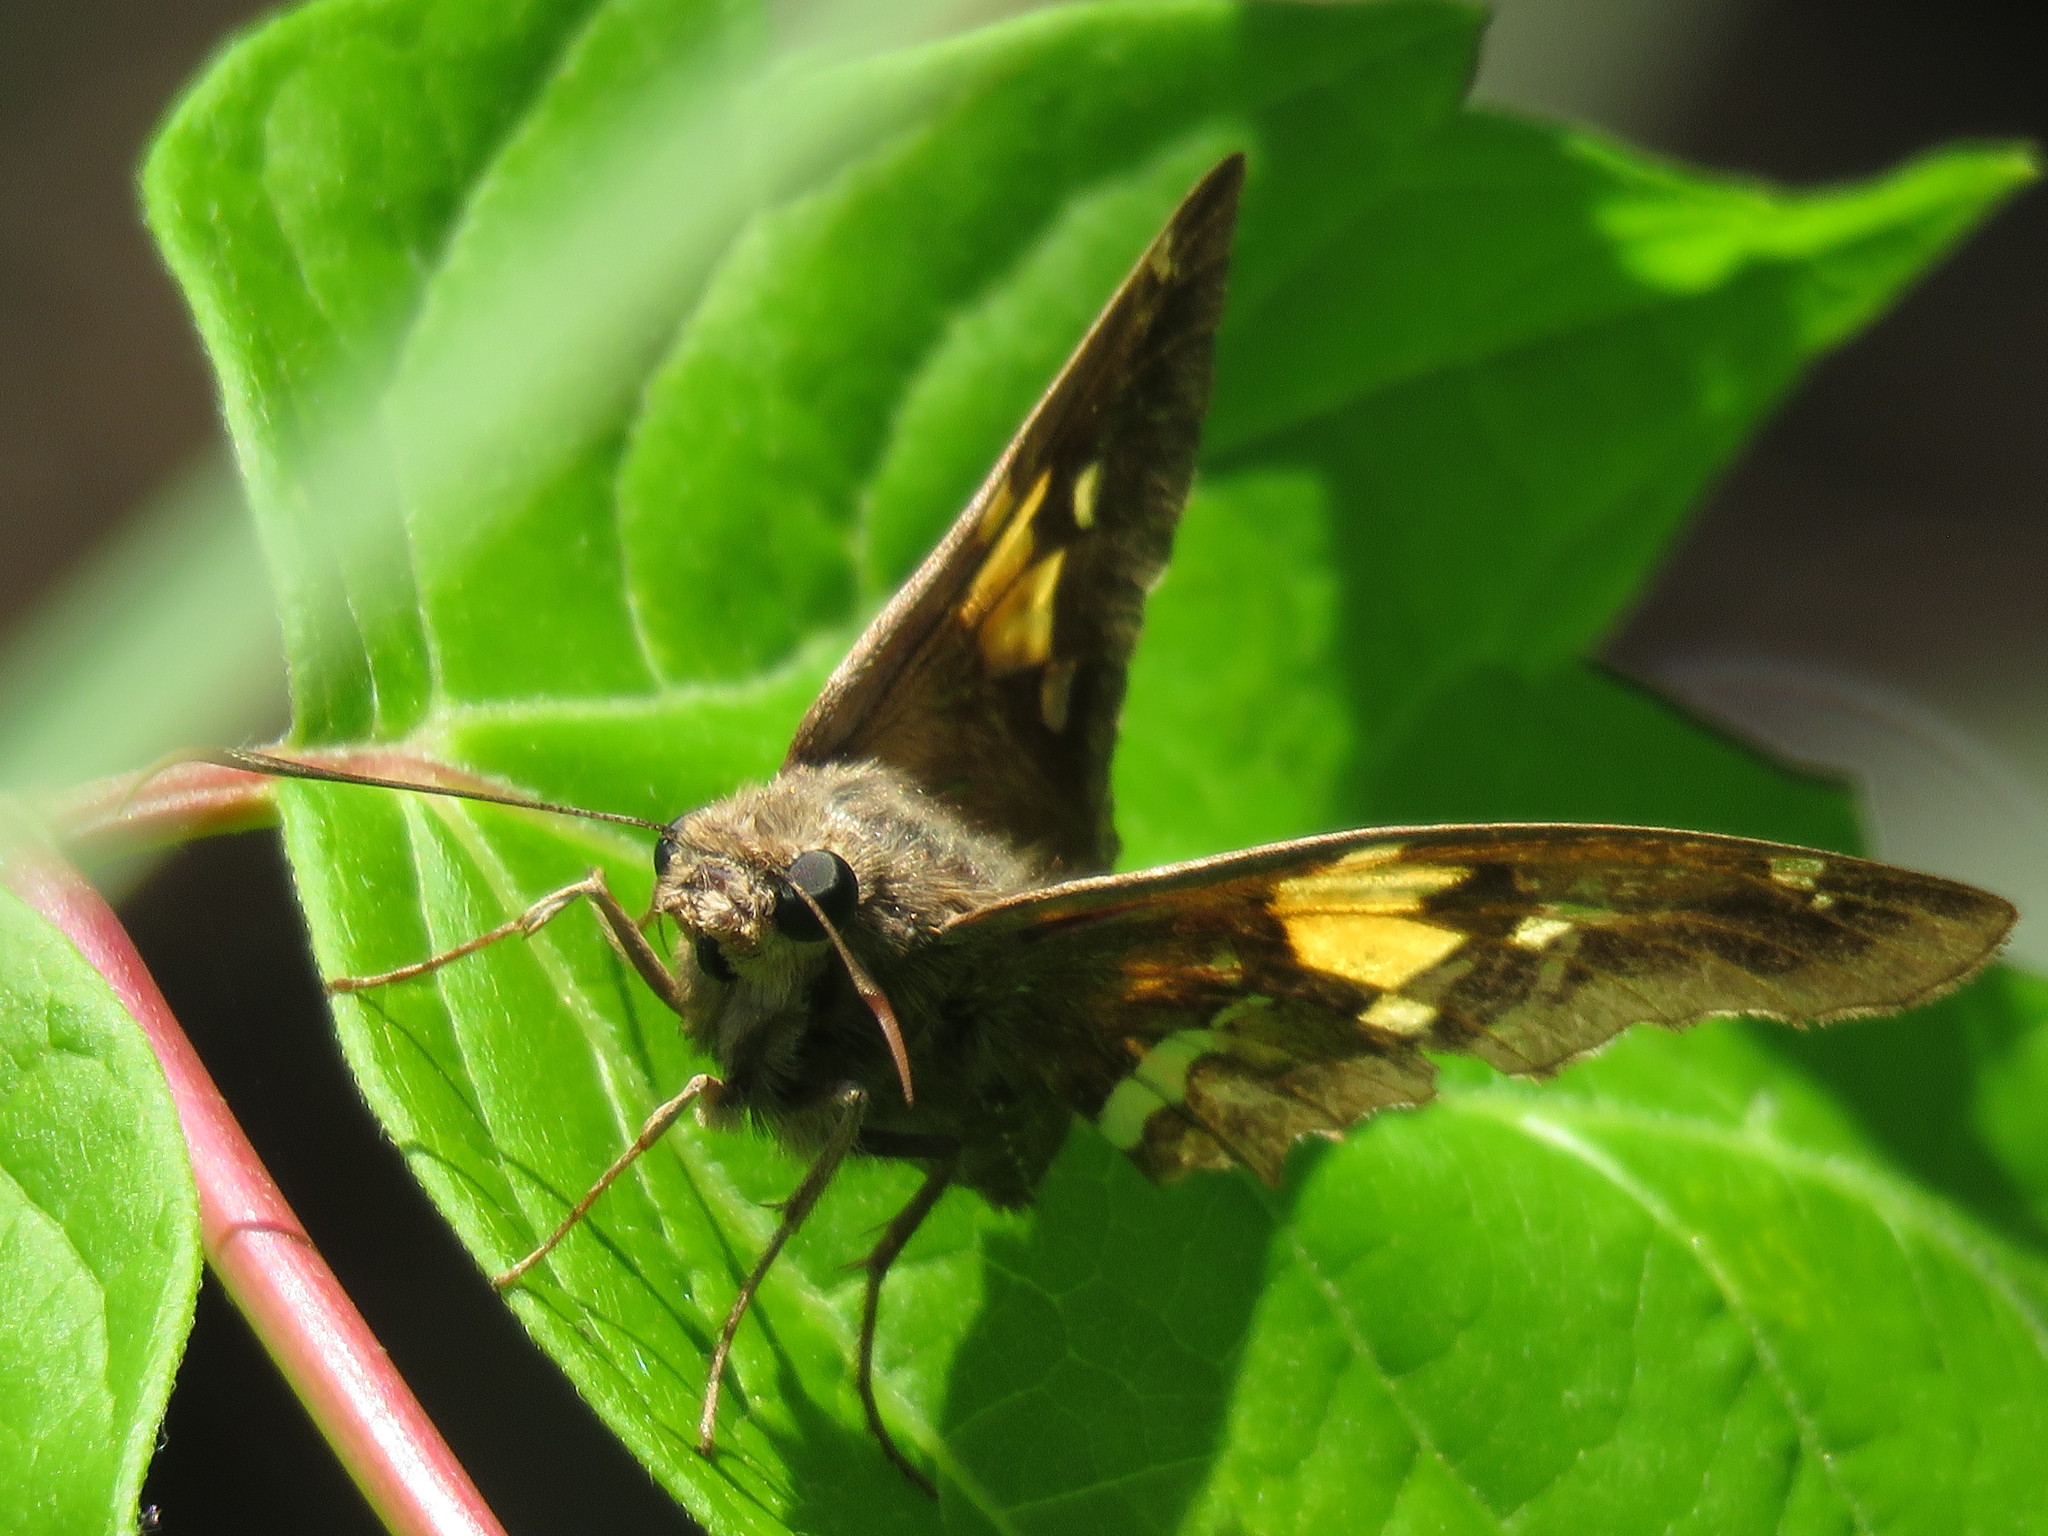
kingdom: Animalia
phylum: Arthropoda
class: Insecta
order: Lepidoptera
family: Hesperiidae
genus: Epargyreus
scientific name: Epargyreus tmolis
